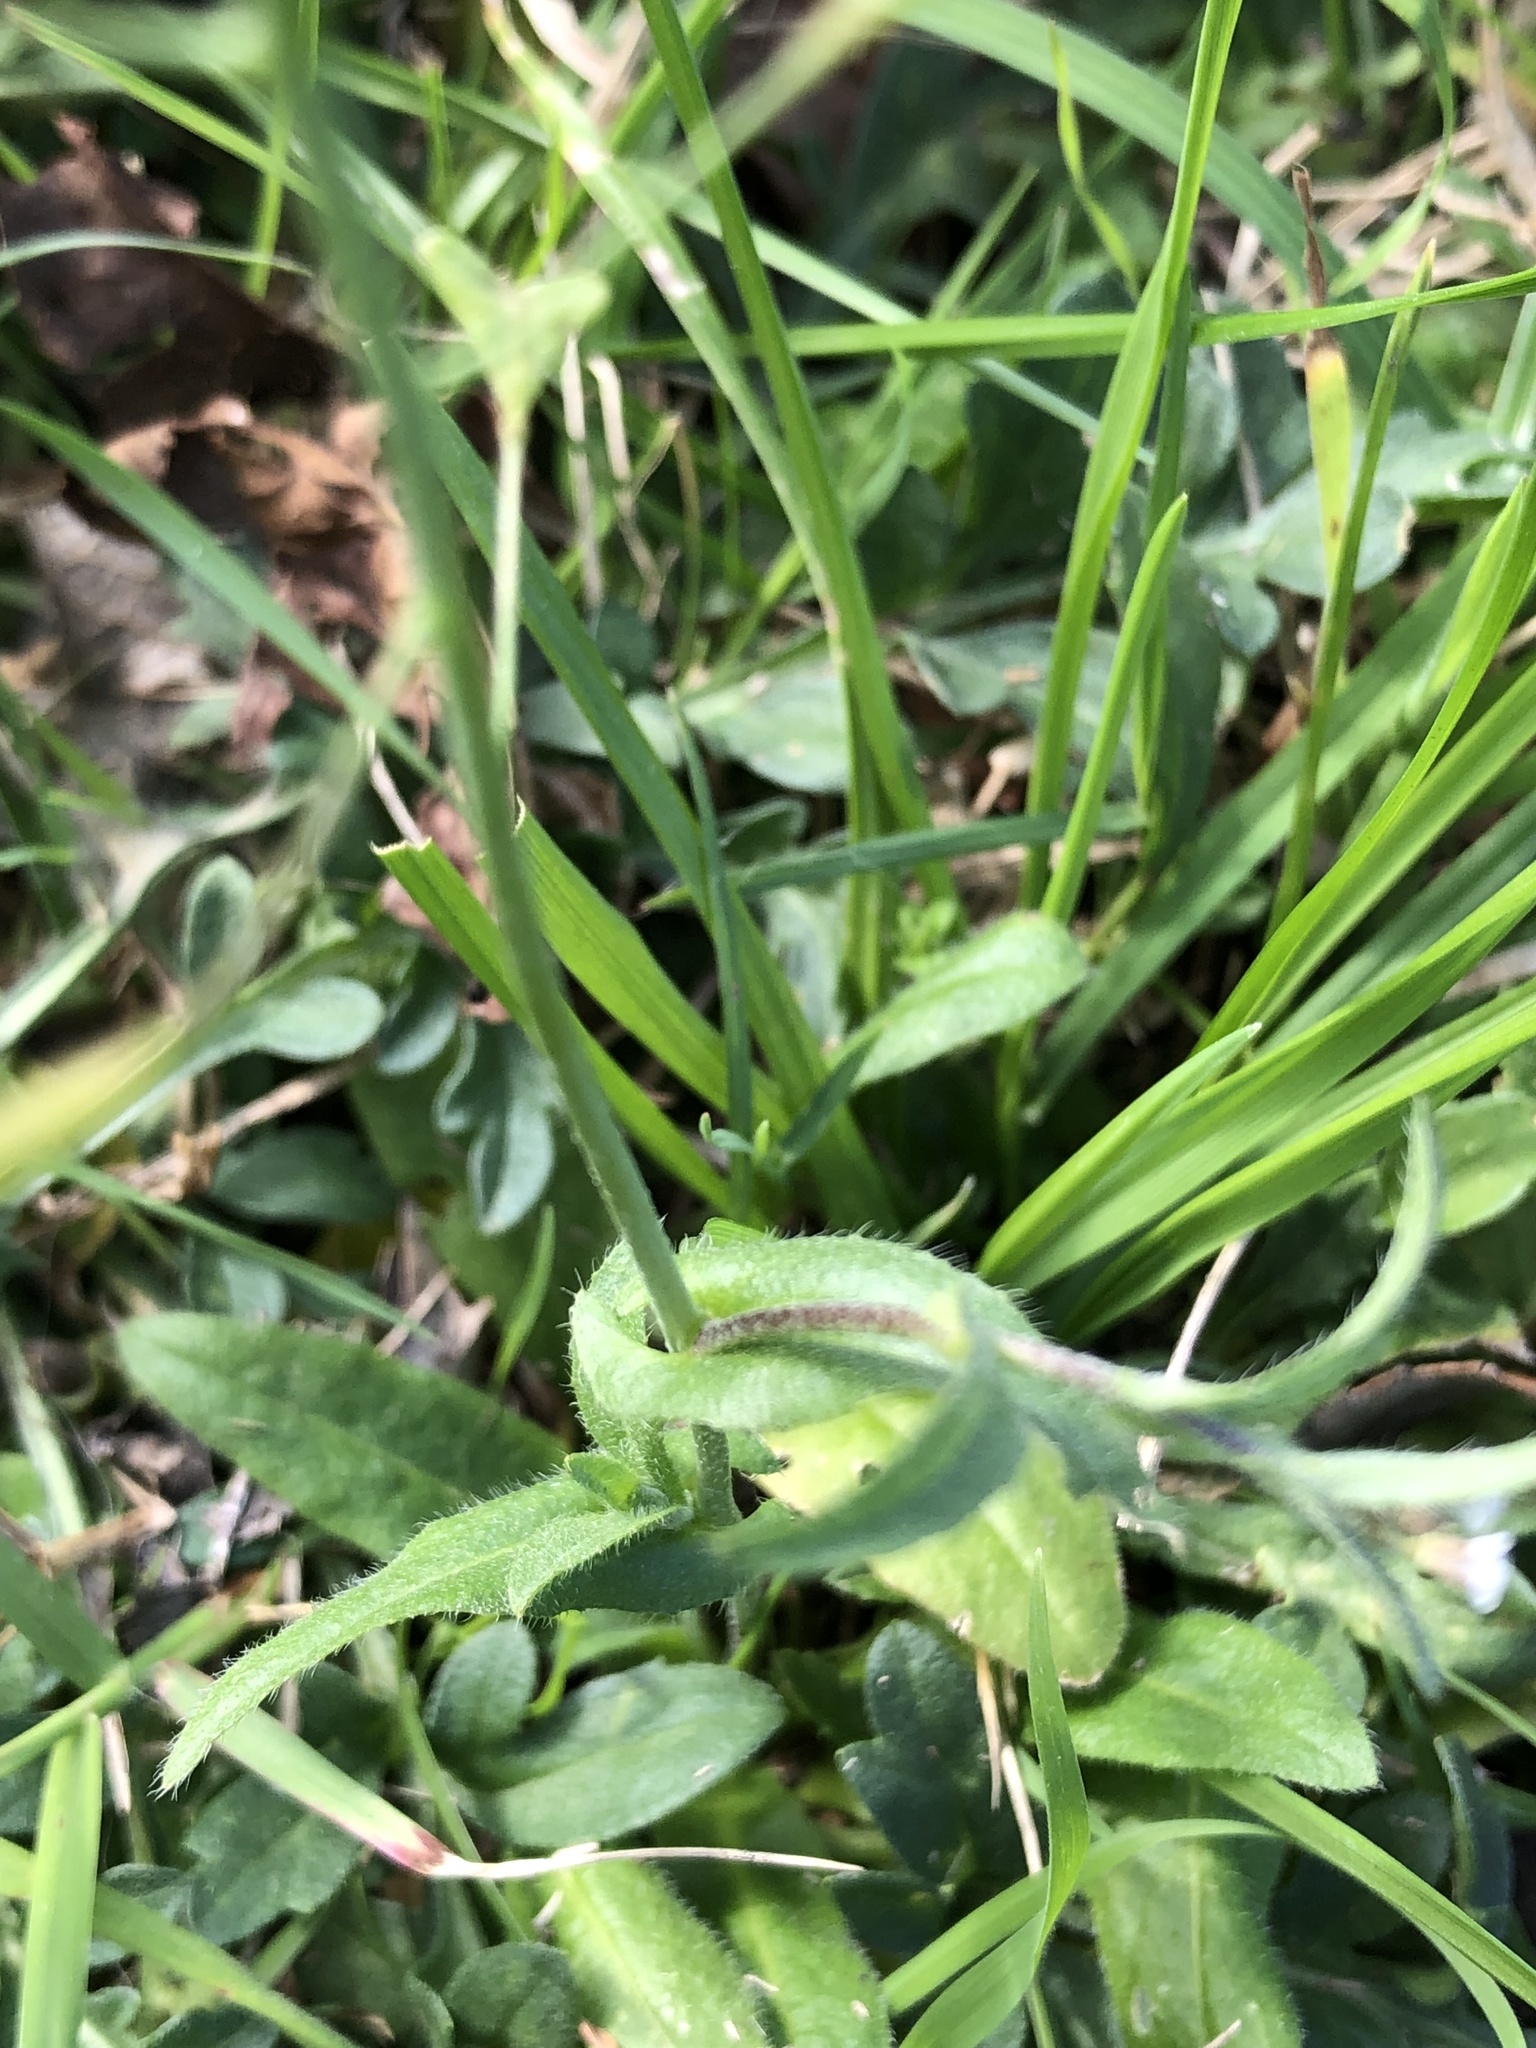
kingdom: Plantae
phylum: Tracheophyta
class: Magnoliopsida
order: Brassicales
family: Brassicaceae
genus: Capsella
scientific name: Capsella bursa-pastoris
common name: Shepherd's purse
